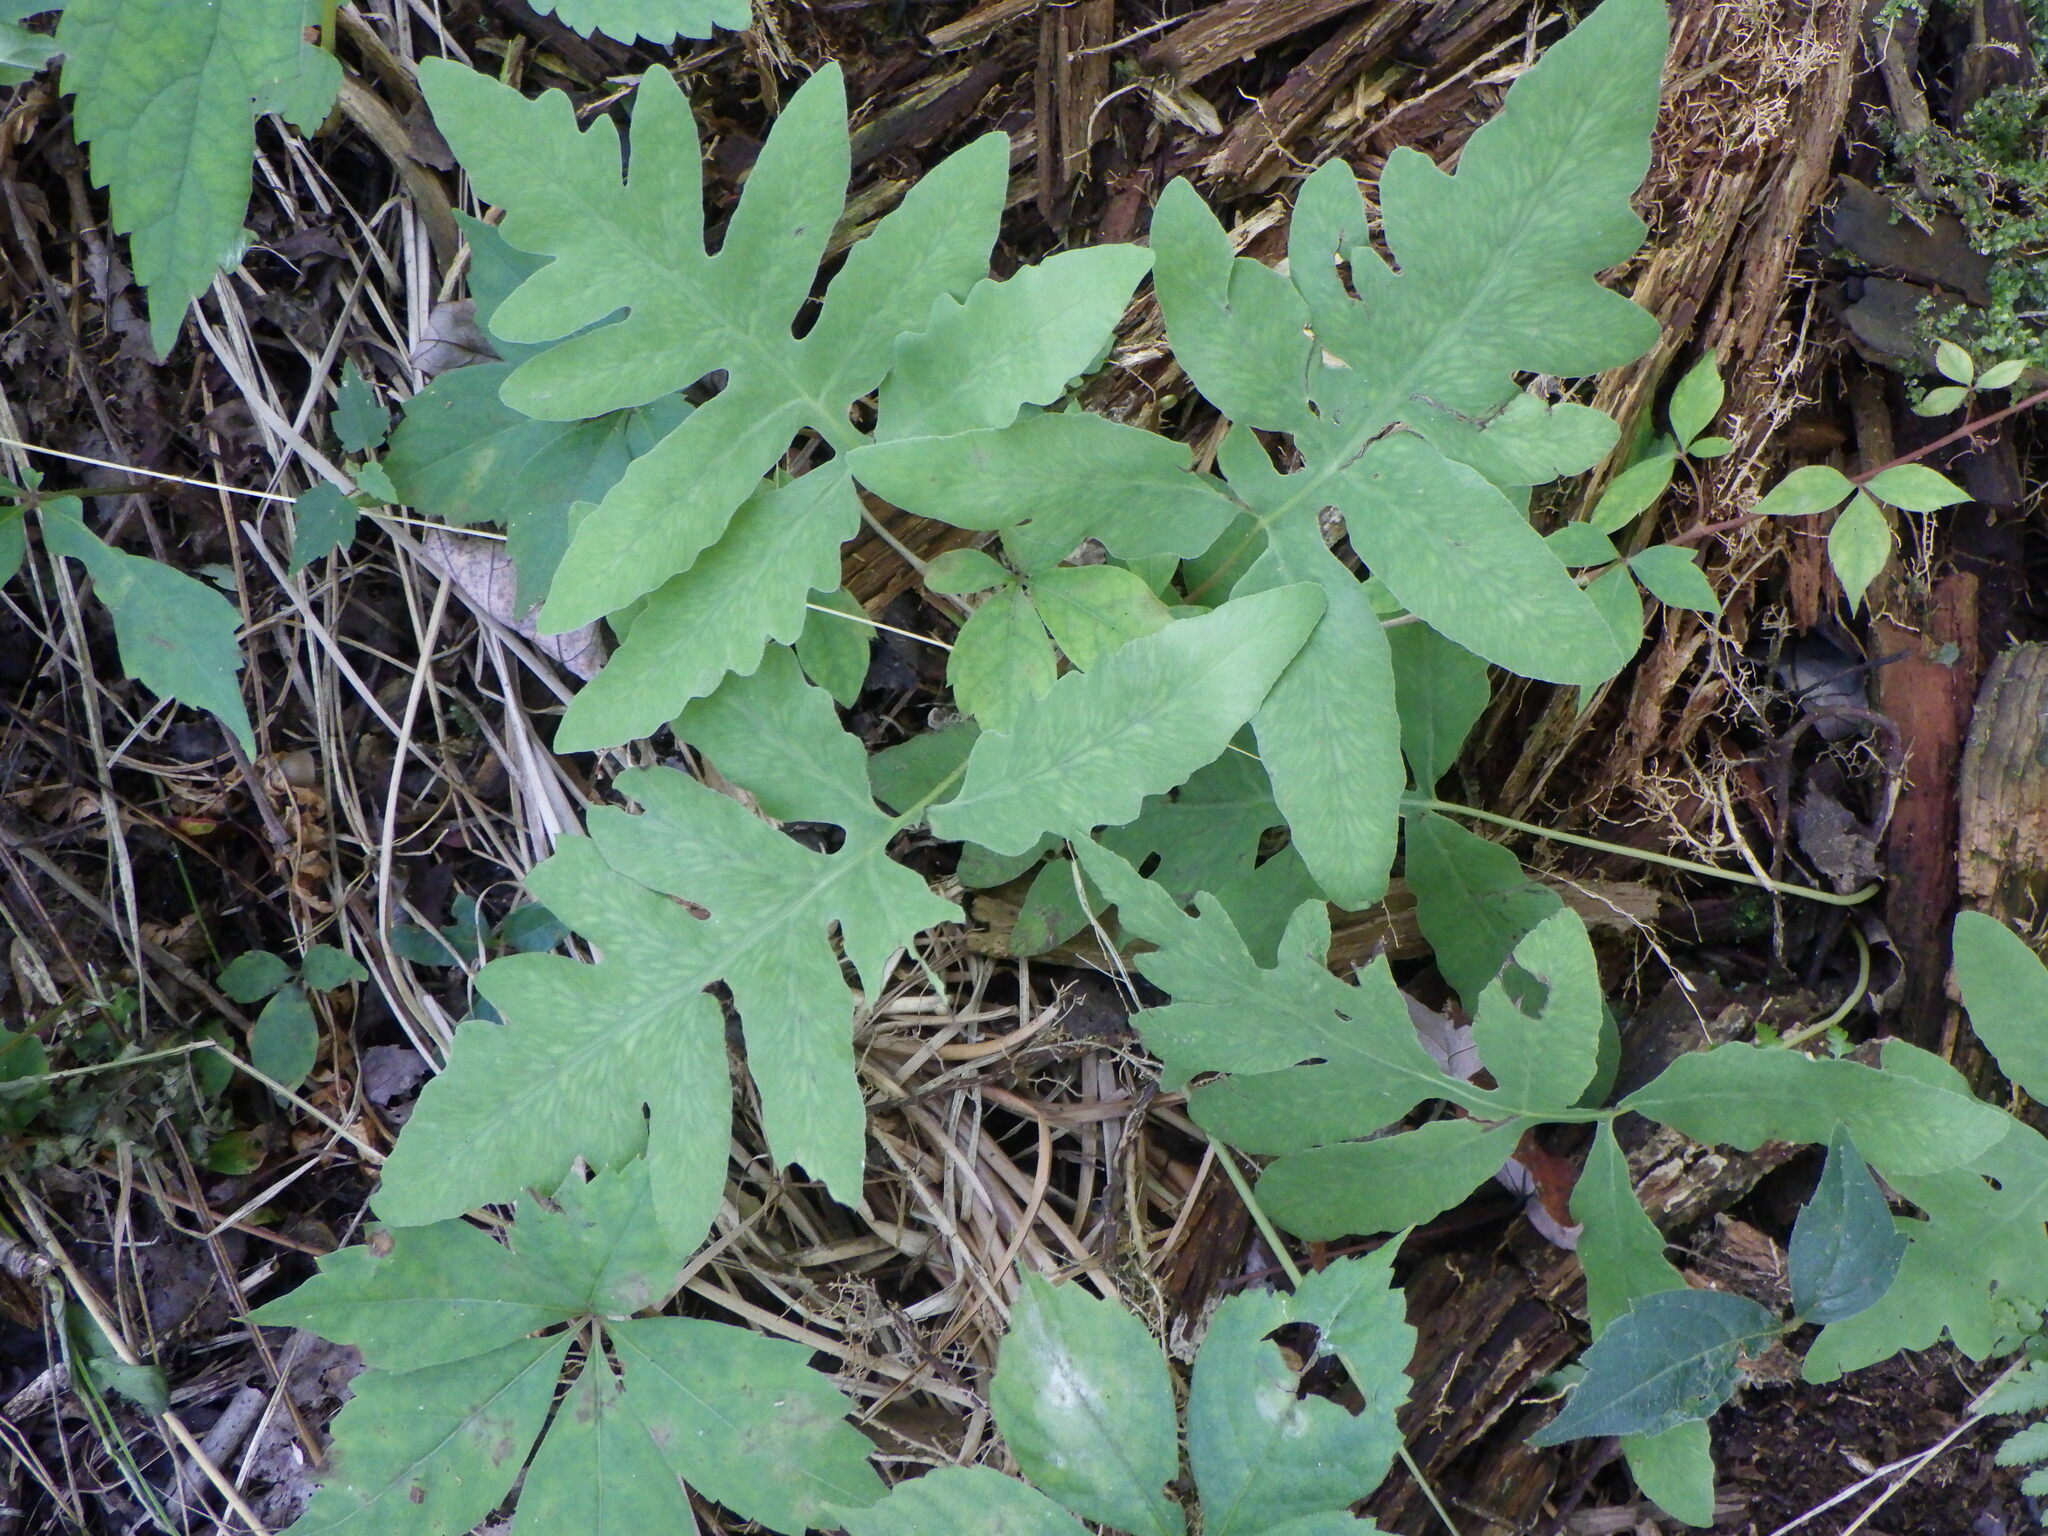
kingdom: Plantae
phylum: Tracheophyta
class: Polypodiopsida
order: Polypodiales
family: Onocleaceae
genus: Onoclea
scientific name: Onoclea sensibilis
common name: Sensitive fern
